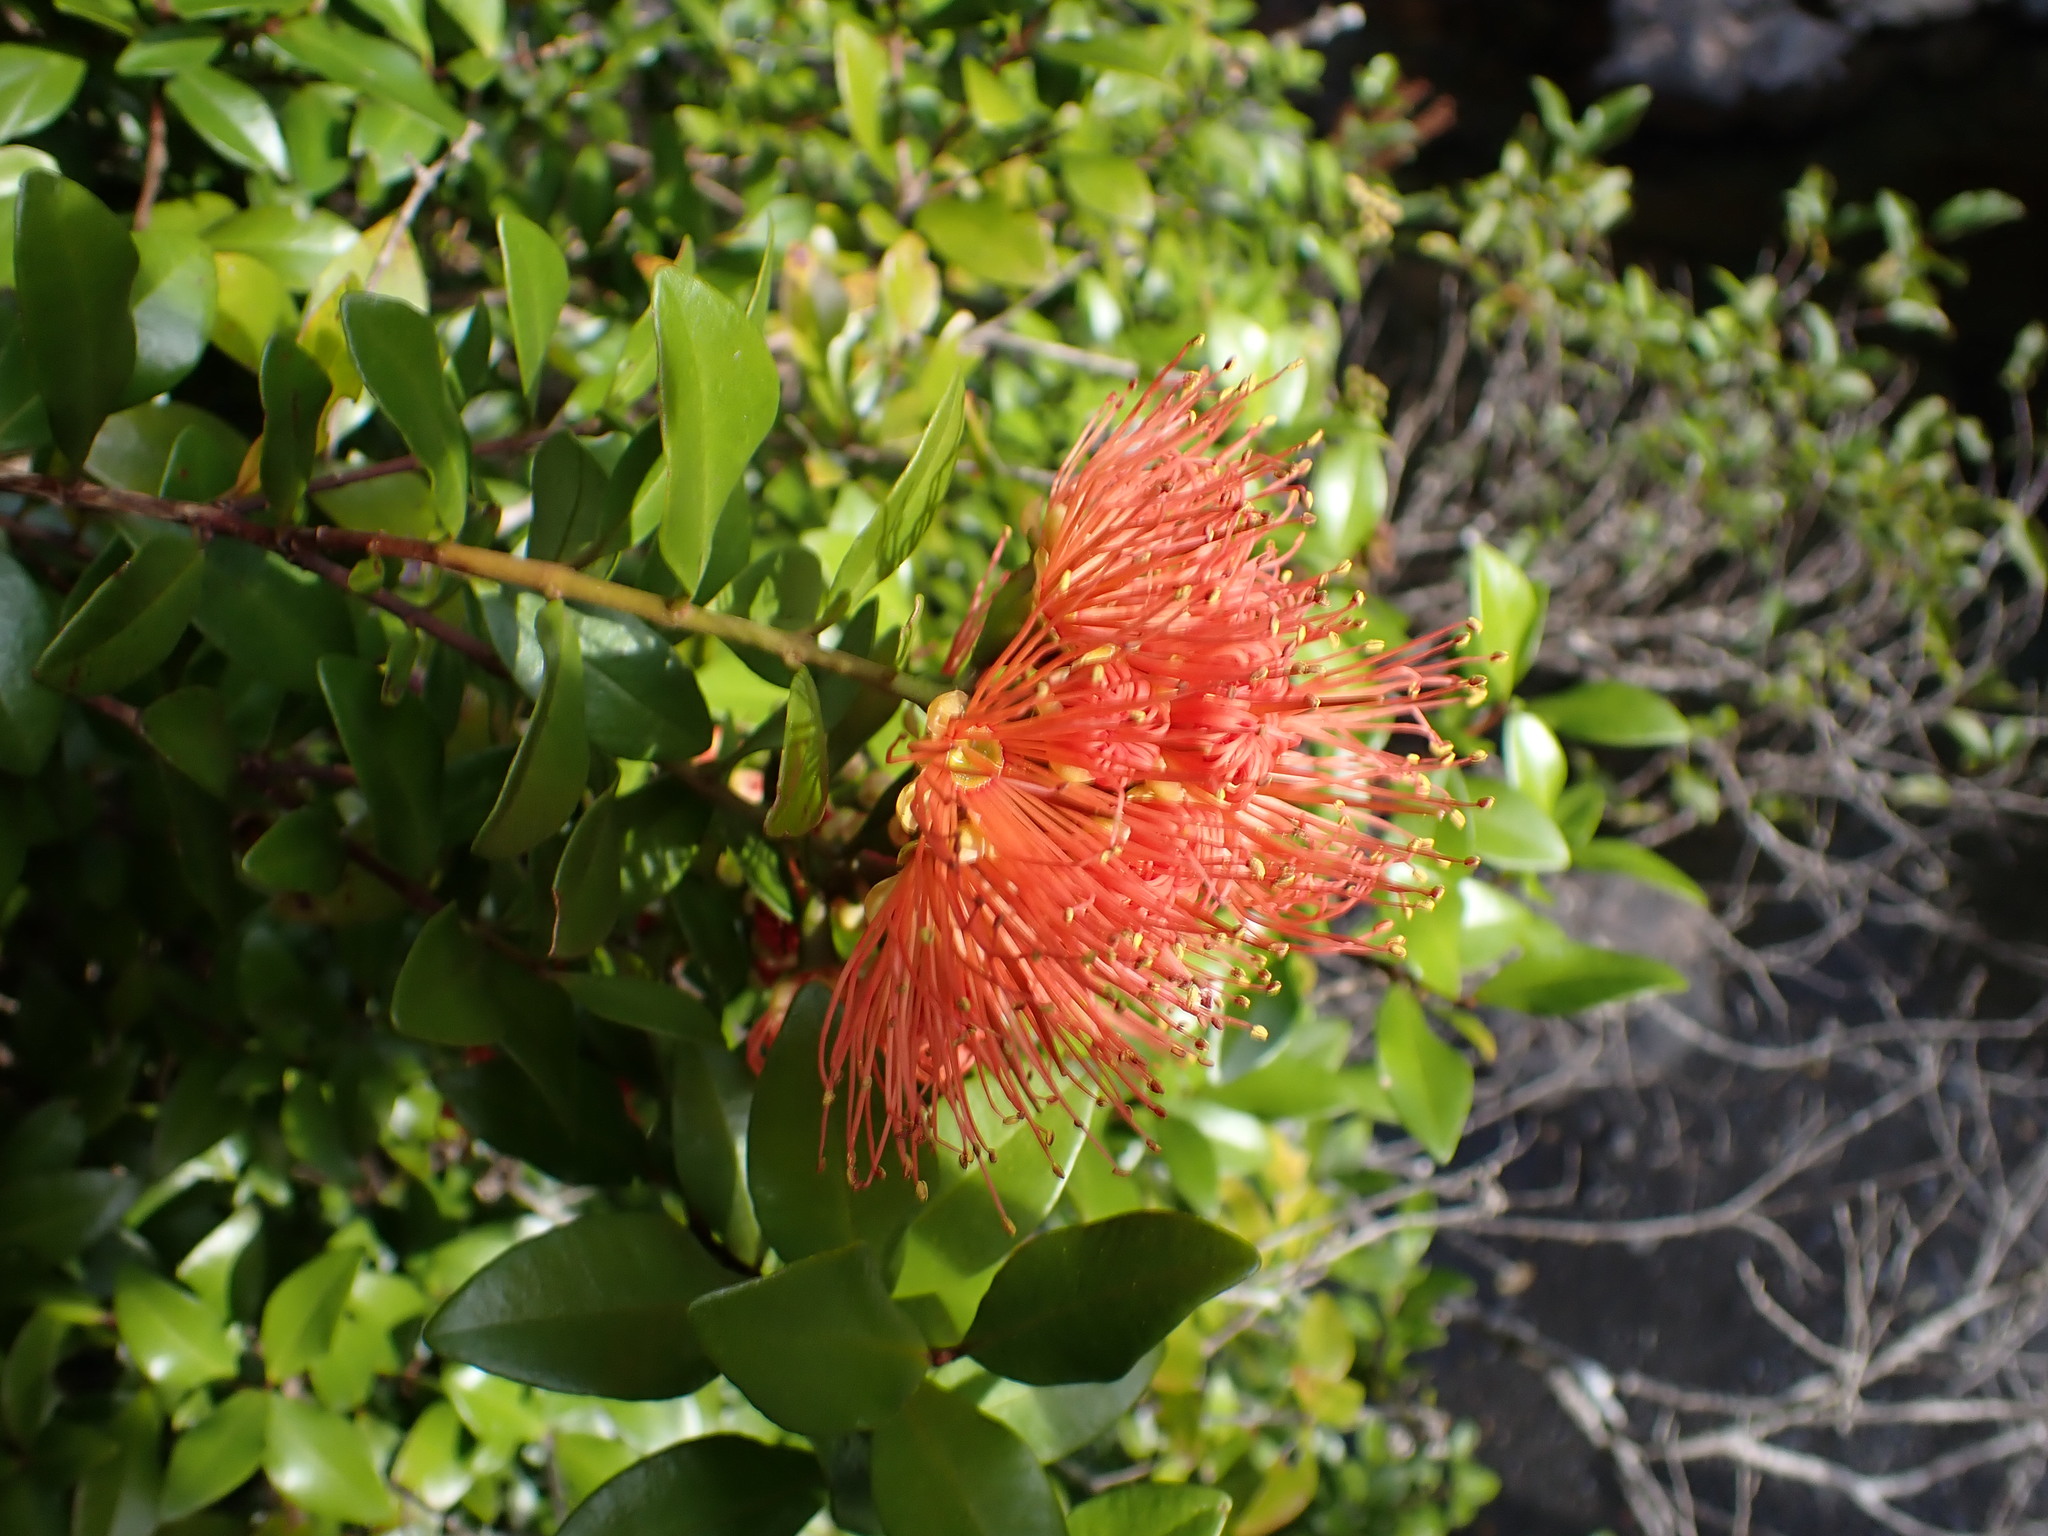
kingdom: Plantae
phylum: Tracheophyta
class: Magnoliopsida
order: Myrtales
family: Myrtaceae
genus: Metrosideros
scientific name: Metrosideros fulgens
